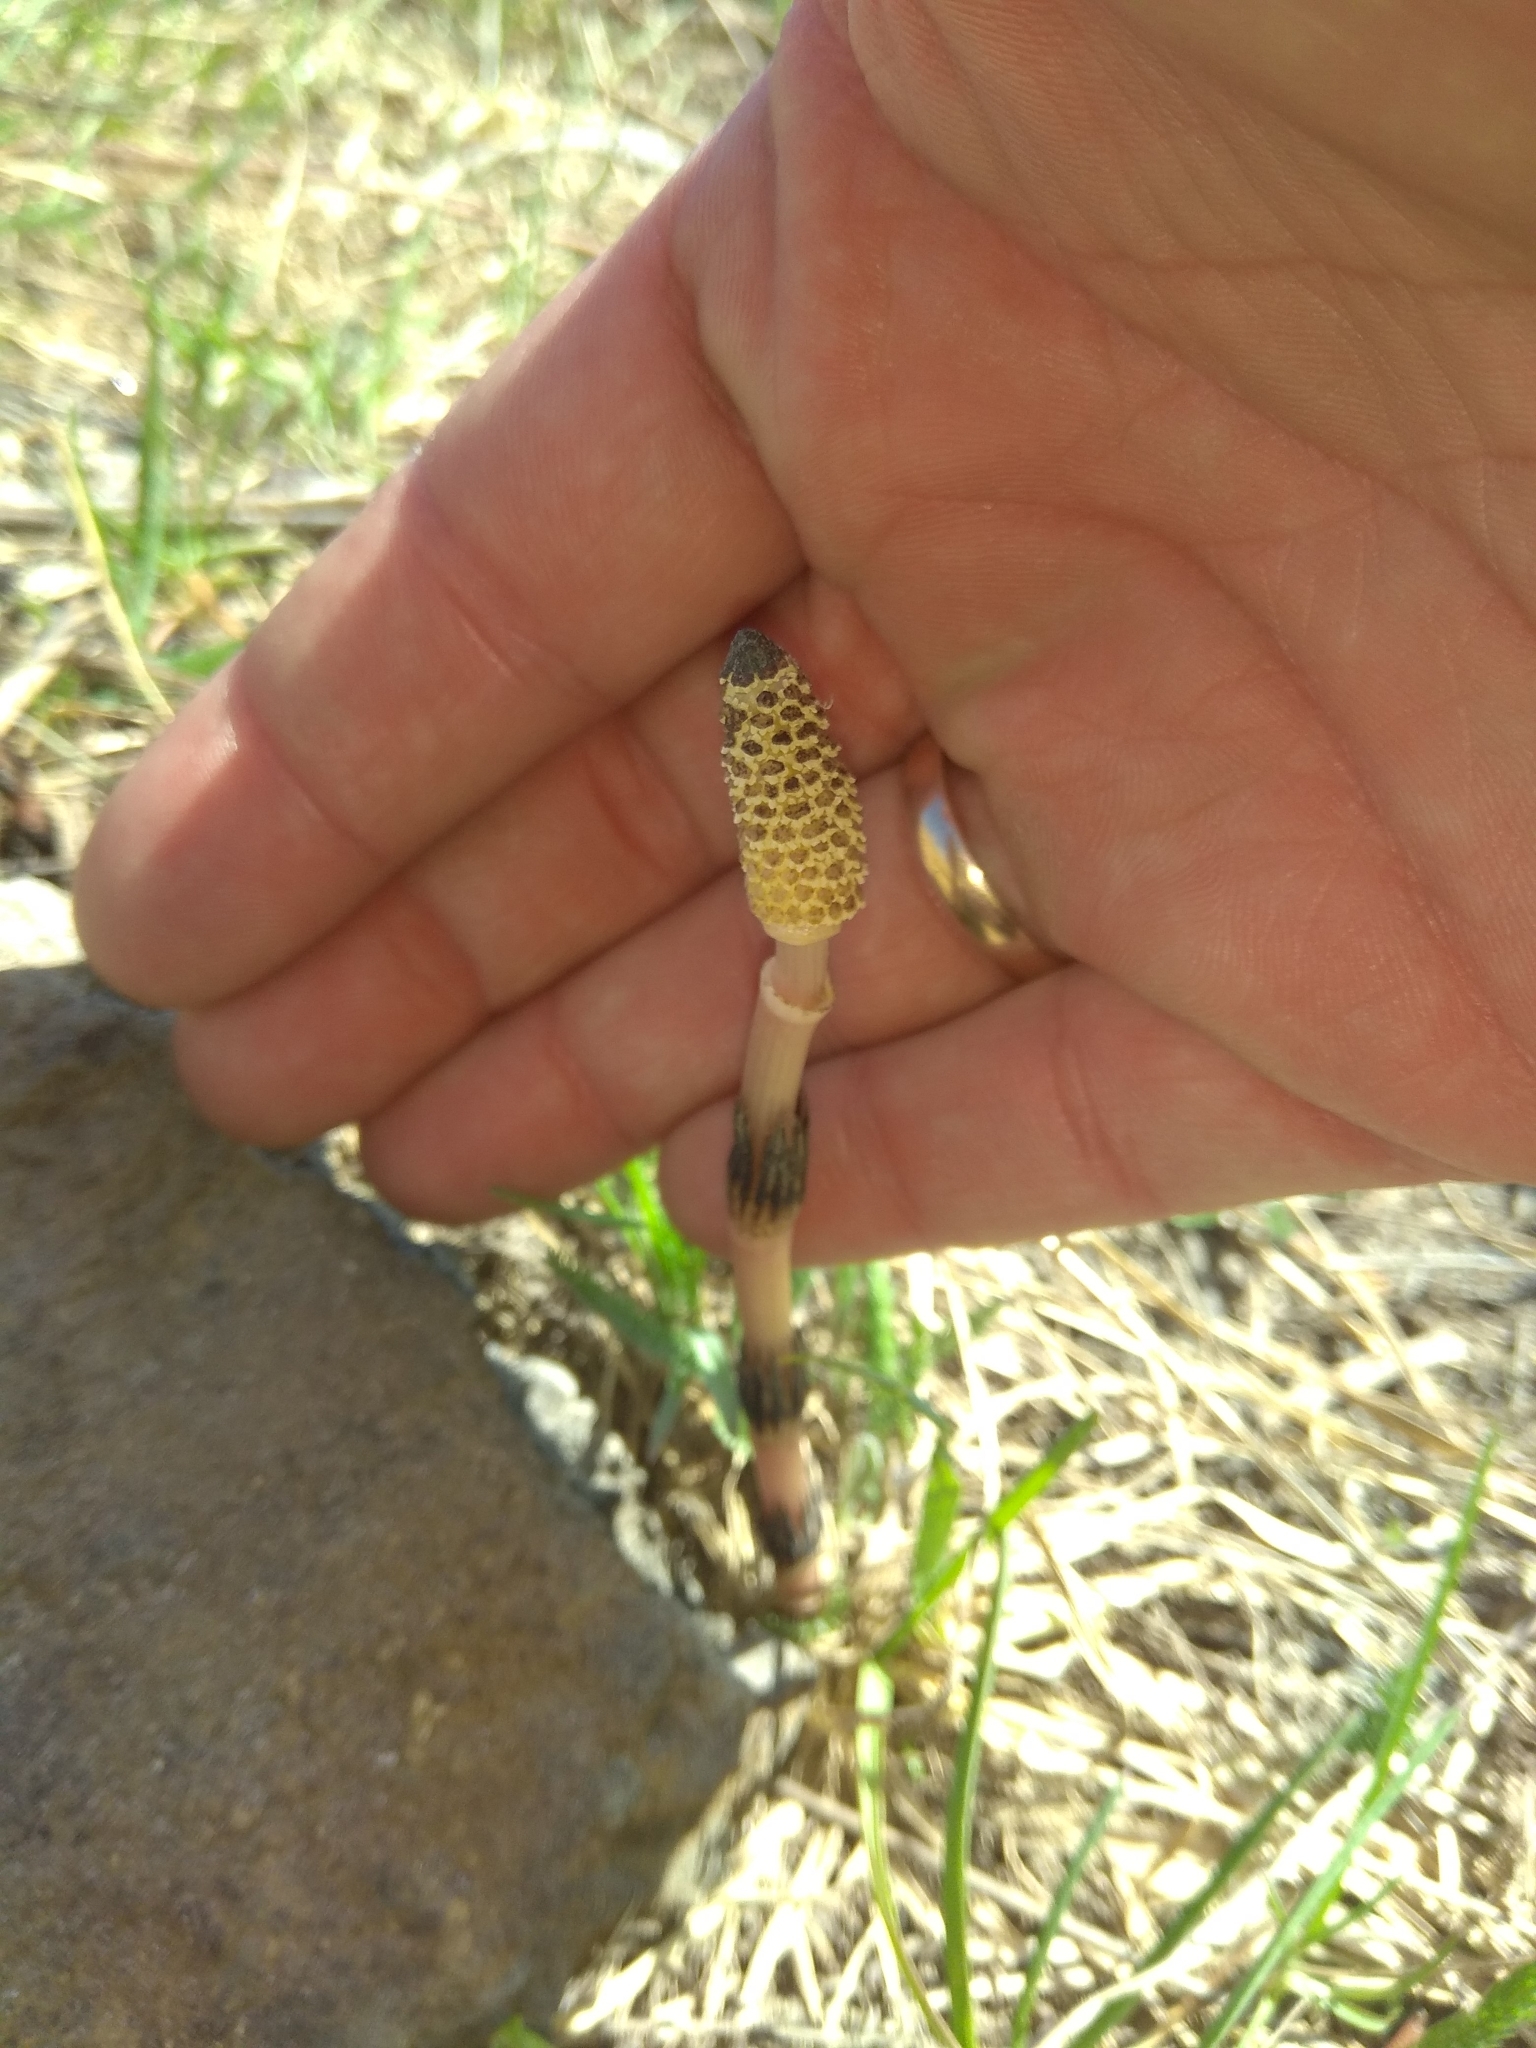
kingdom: Plantae
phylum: Tracheophyta
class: Polypodiopsida
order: Equisetales
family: Equisetaceae
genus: Equisetum
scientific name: Equisetum arvense
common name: Field horsetail
